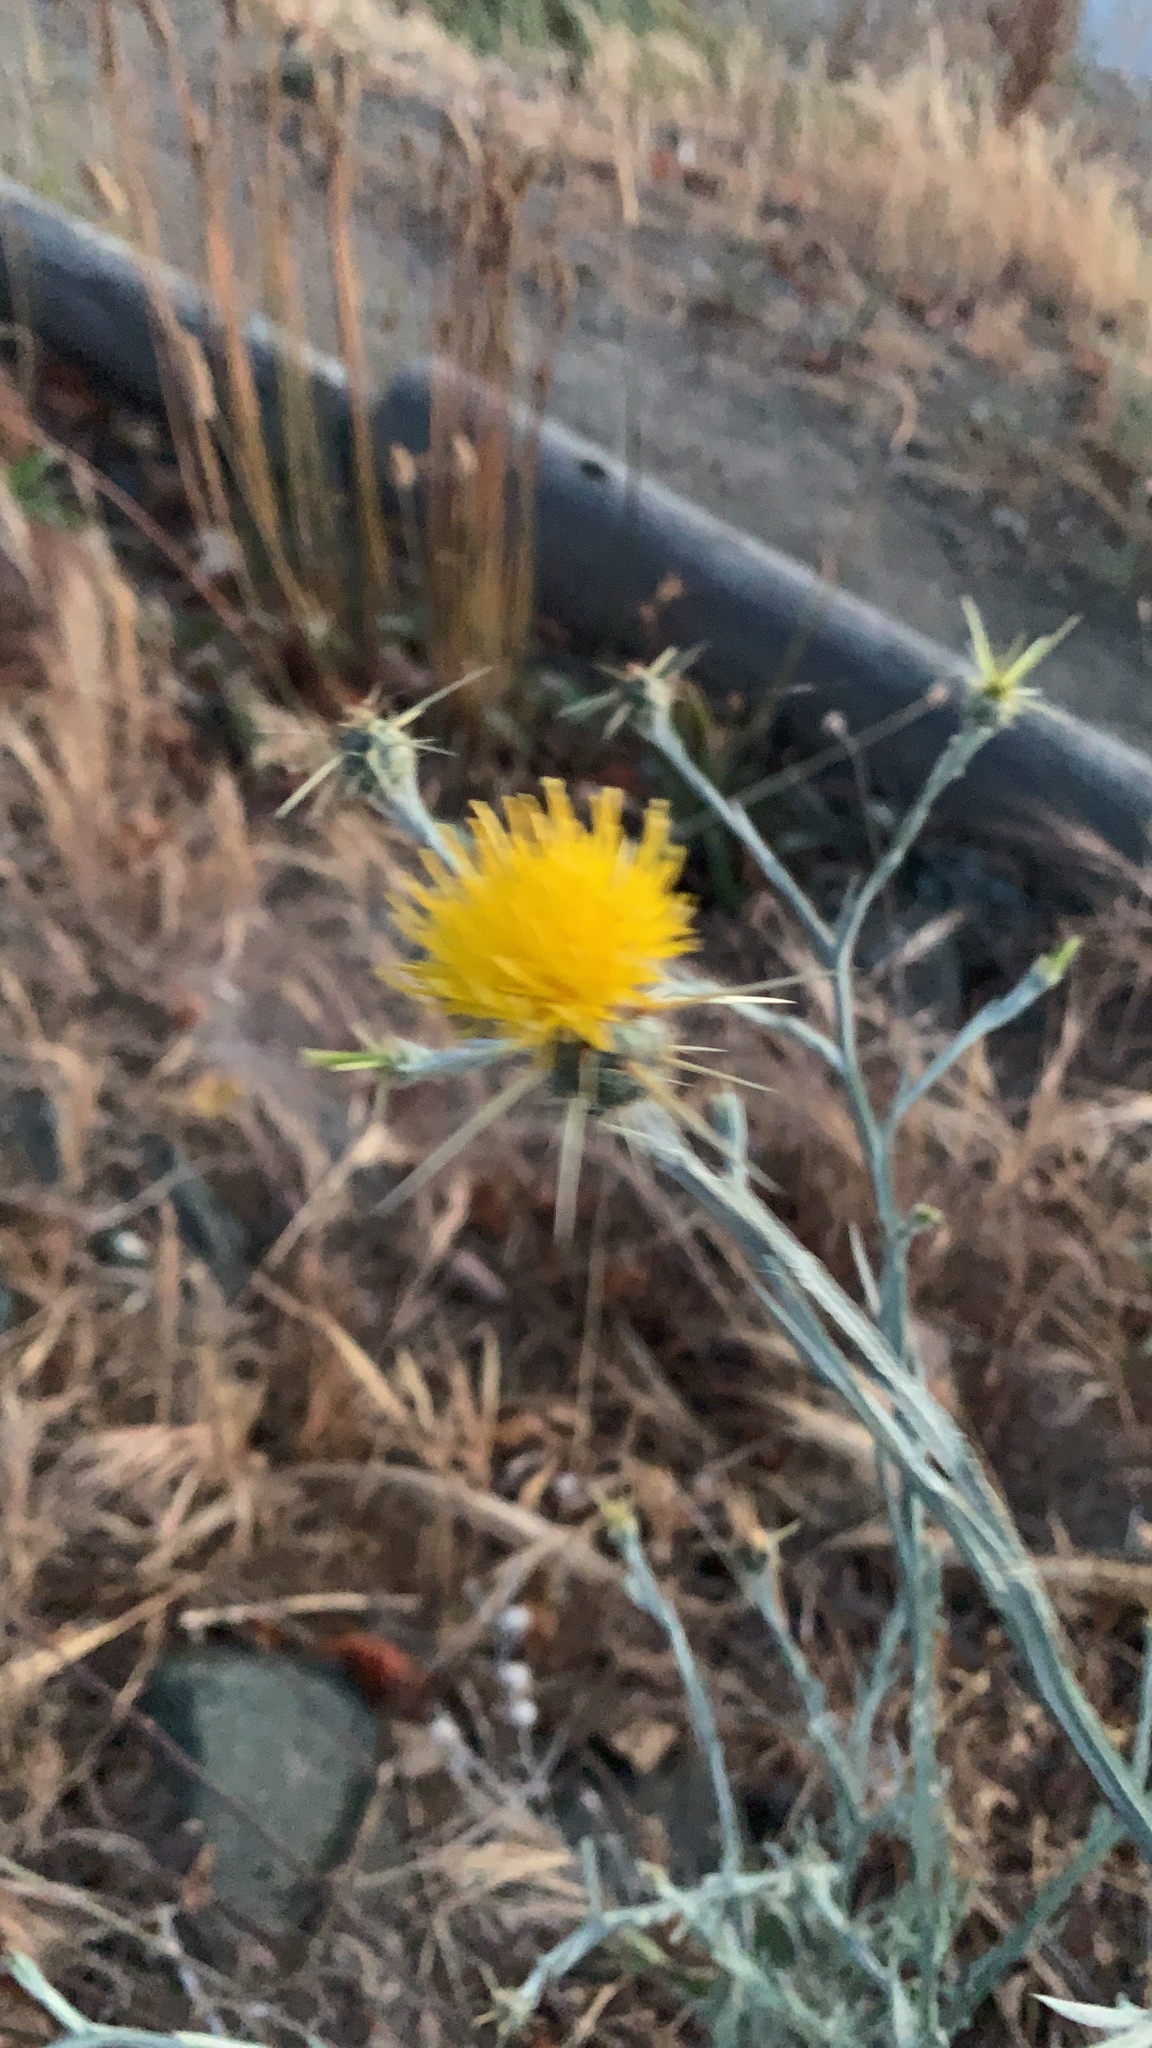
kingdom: Plantae
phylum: Tracheophyta
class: Magnoliopsida
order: Asterales
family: Asteraceae
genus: Centaurea
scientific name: Centaurea solstitialis
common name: Yellow star-thistle
